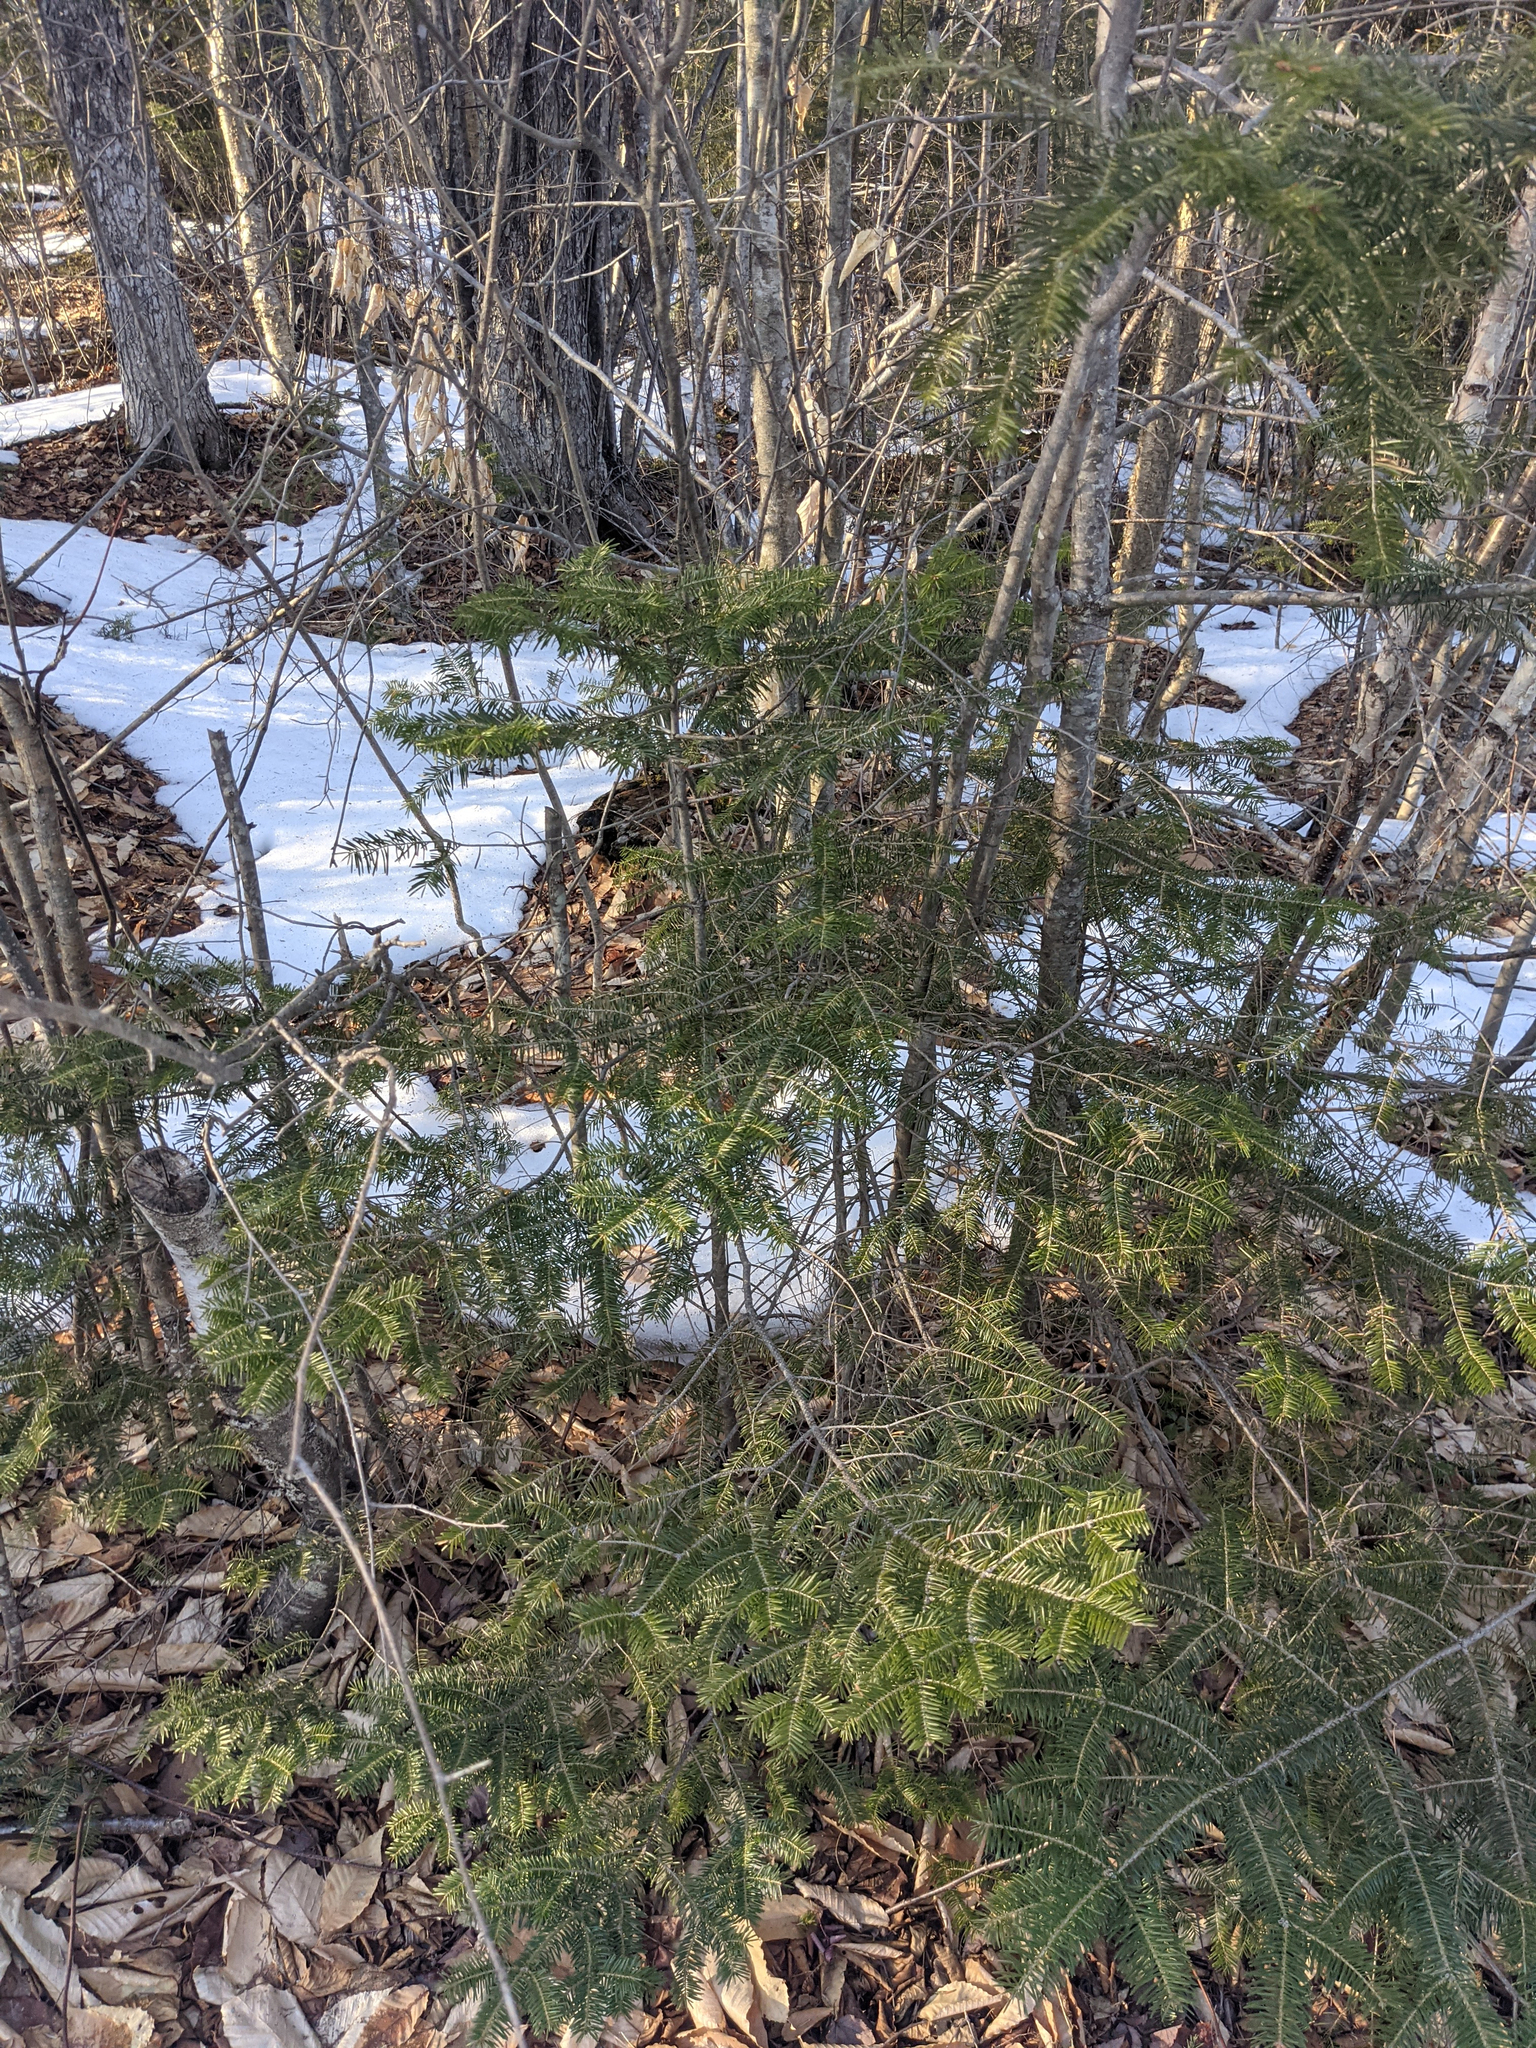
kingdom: Plantae
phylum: Tracheophyta
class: Pinopsida
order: Pinales
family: Pinaceae
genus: Abies
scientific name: Abies balsamea
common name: Balsam fir
